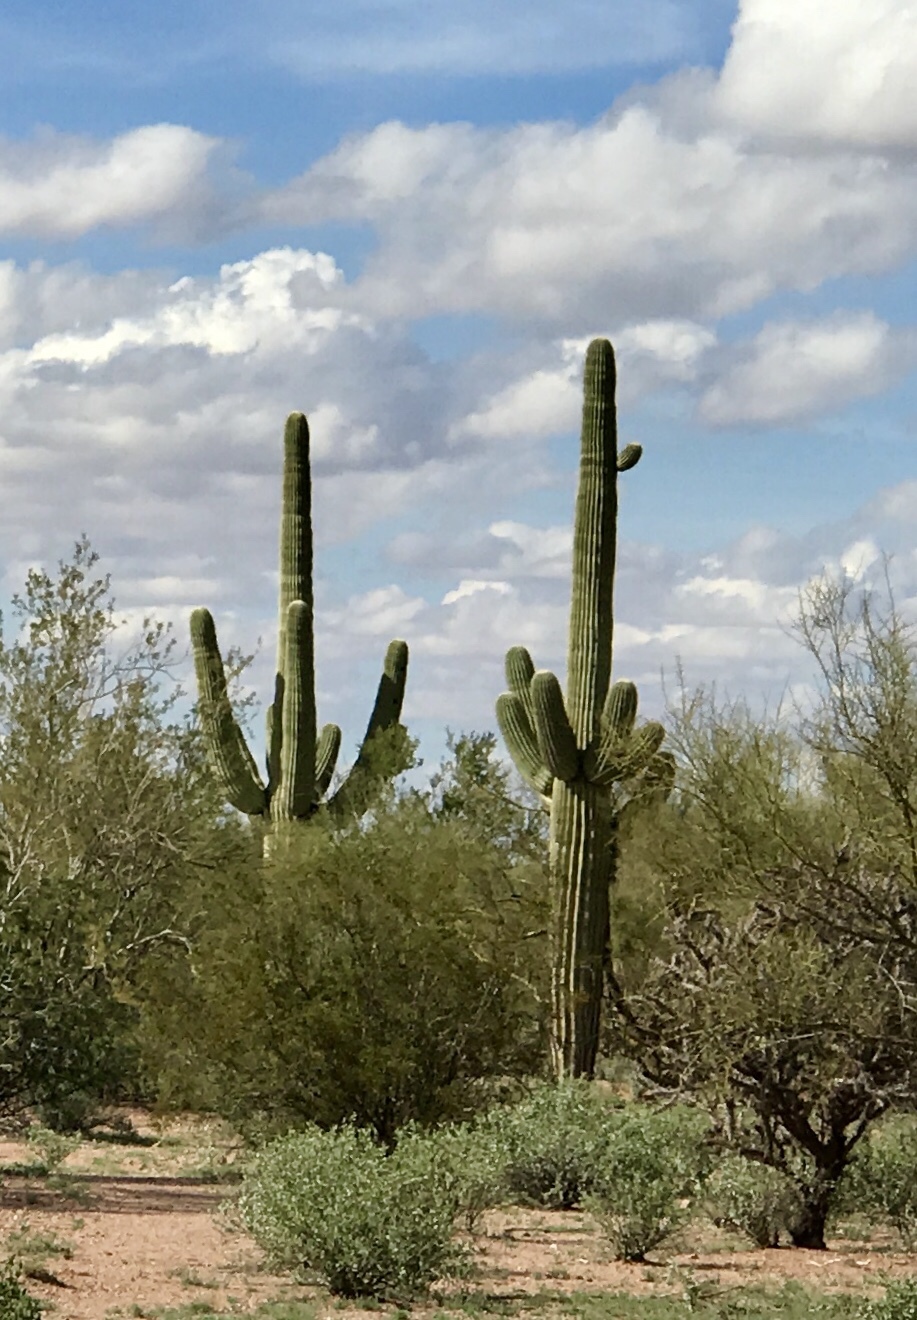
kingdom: Plantae
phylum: Tracheophyta
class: Magnoliopsida
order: Caryophyllales
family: Cactaceae
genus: Carnegiea
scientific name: Carnegiea gigantea
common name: Saguaro
